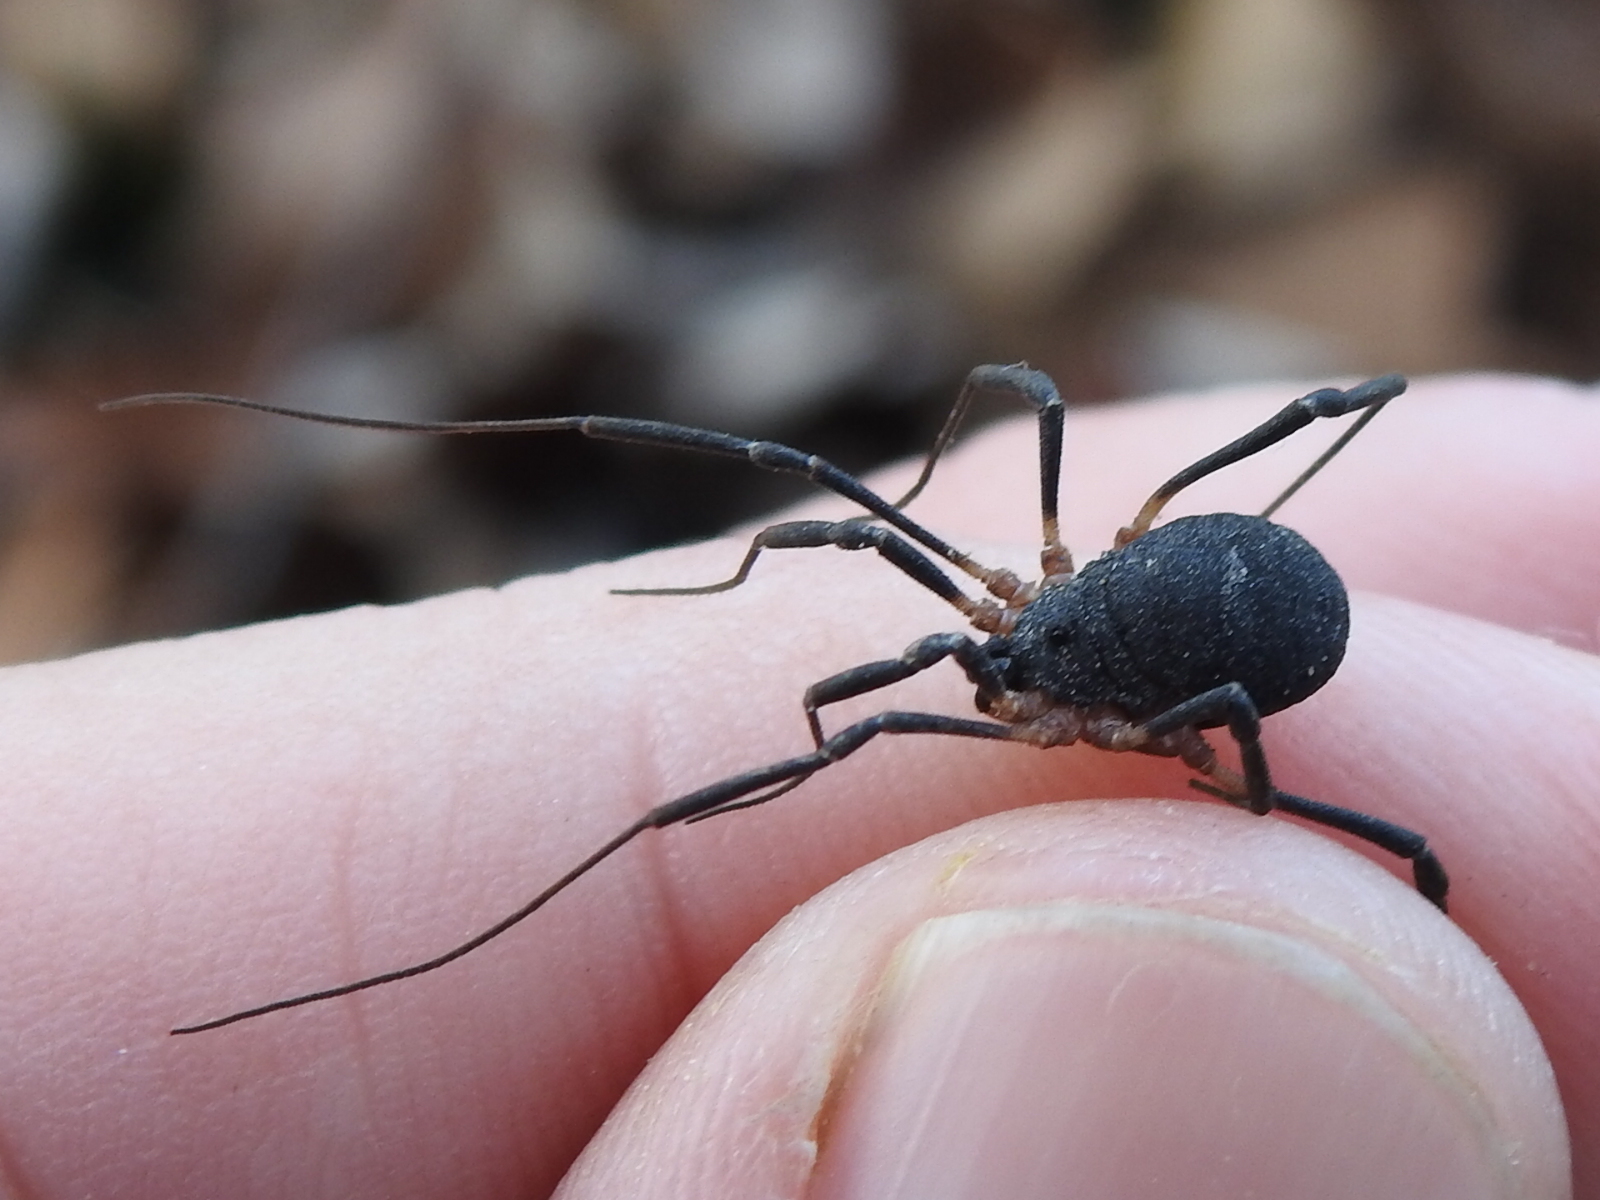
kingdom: Animalia
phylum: Arthropoda
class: Arachnida
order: Opiliones
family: Sclerosomatidae
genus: Eumesosoma
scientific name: Eumesosoma roeweri
